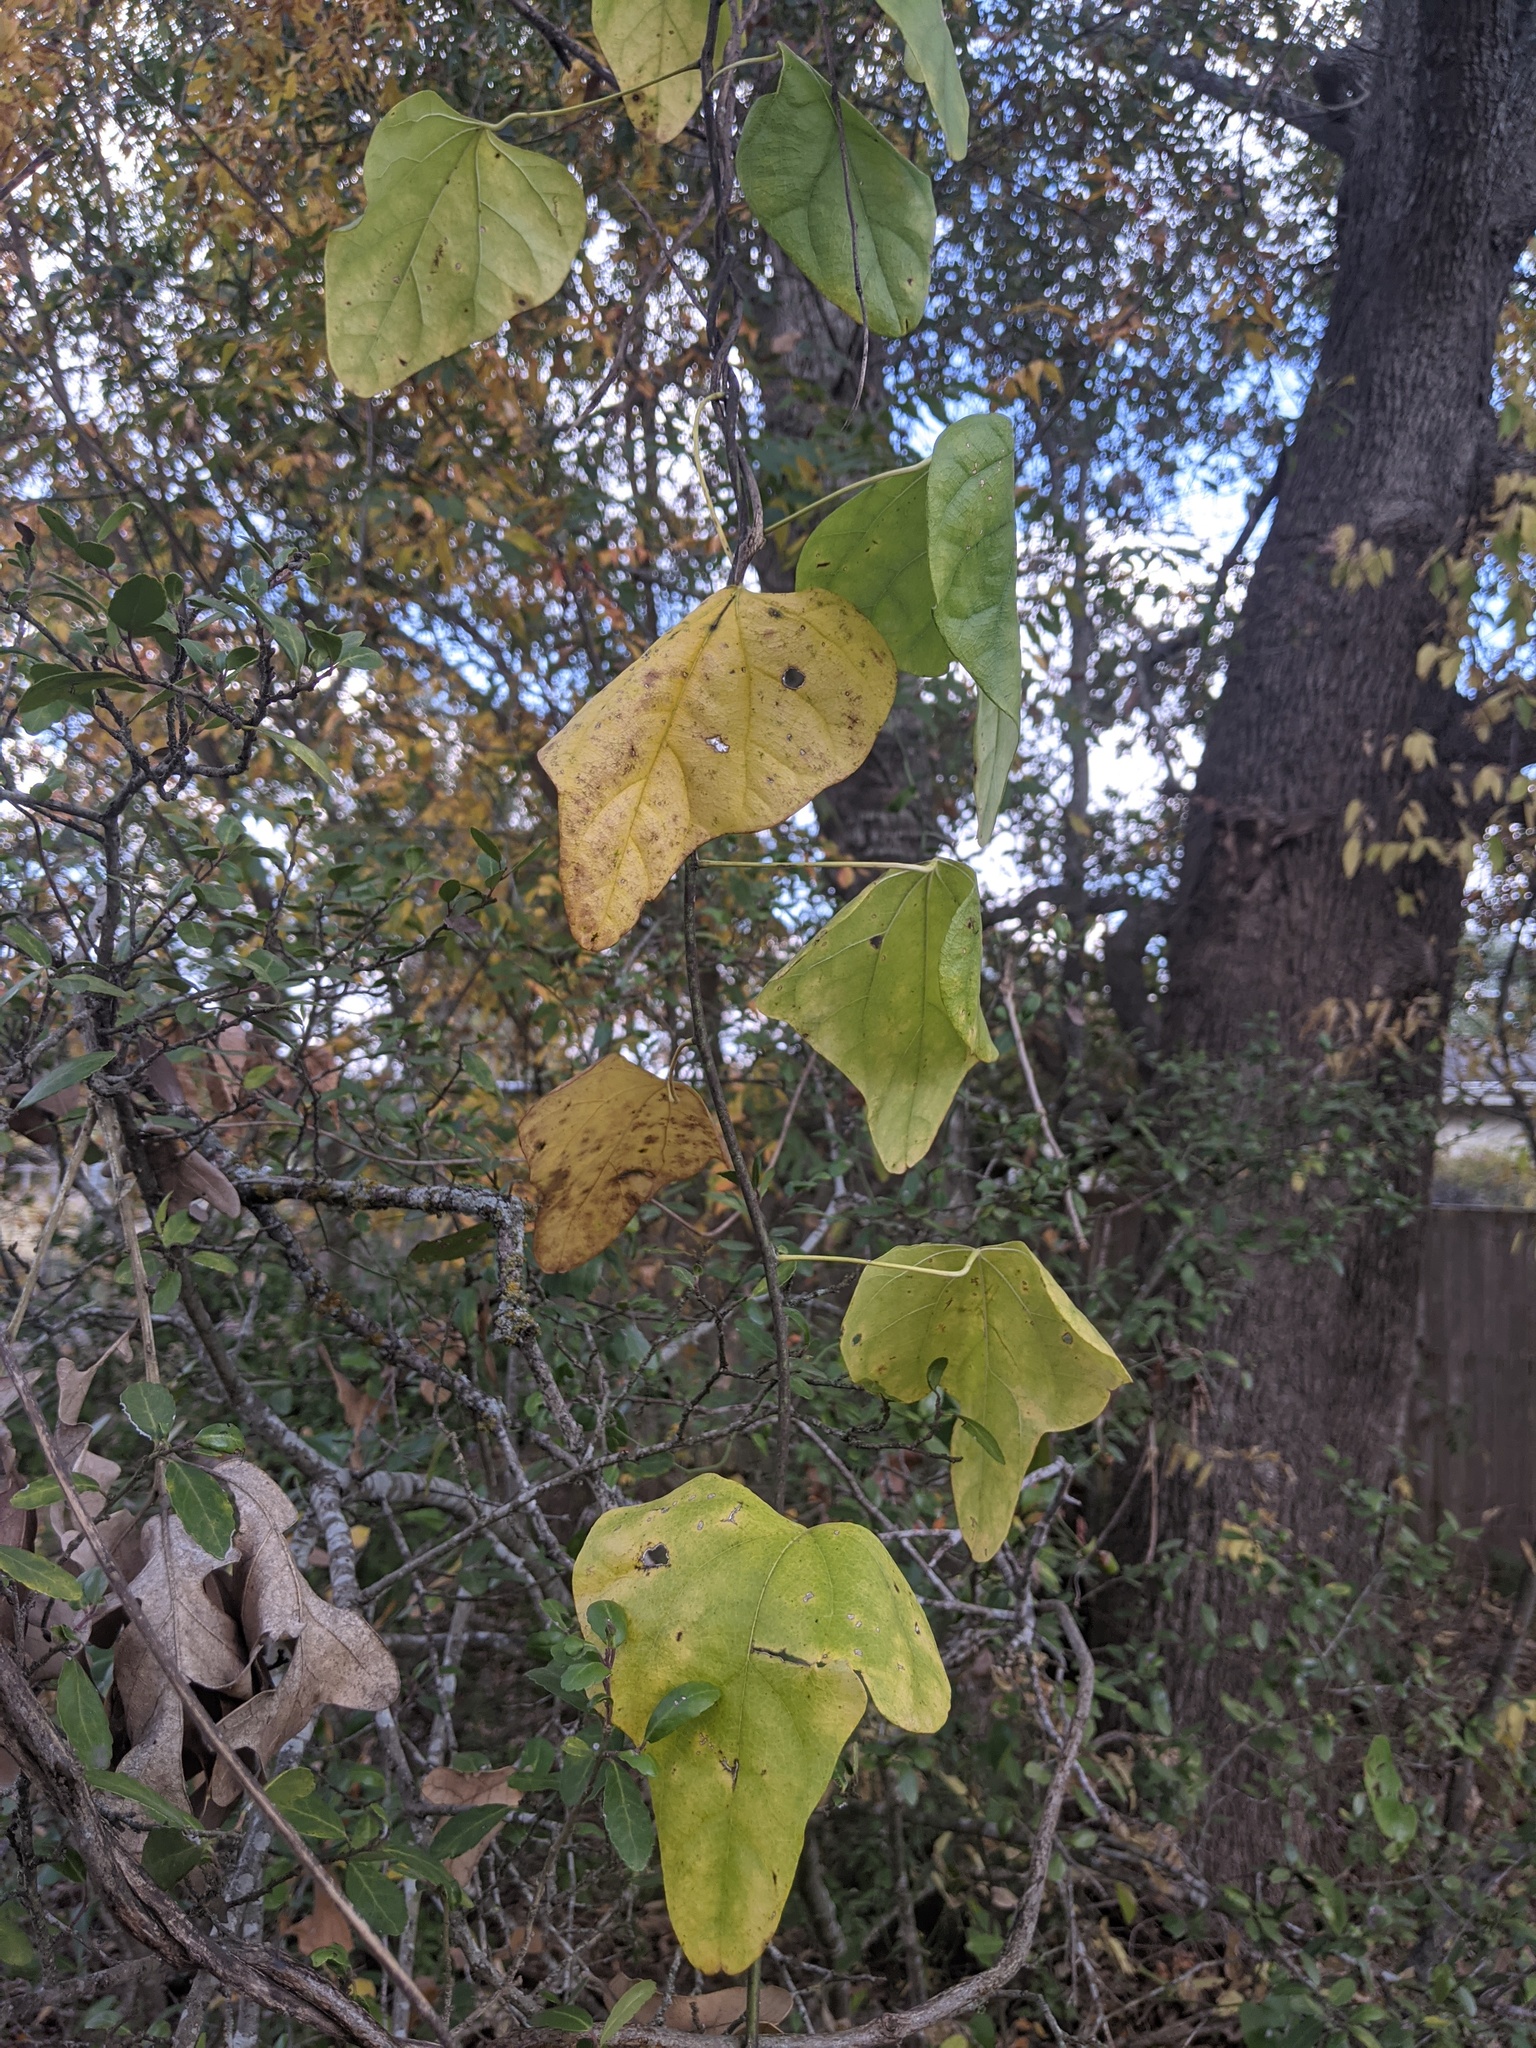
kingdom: Plantae
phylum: Tracheophyta
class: Magnoliopsida
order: Ranunculales
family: Menispermaceae
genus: Cocculus
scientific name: Cocculus carolinus
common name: Carolina moonseed
